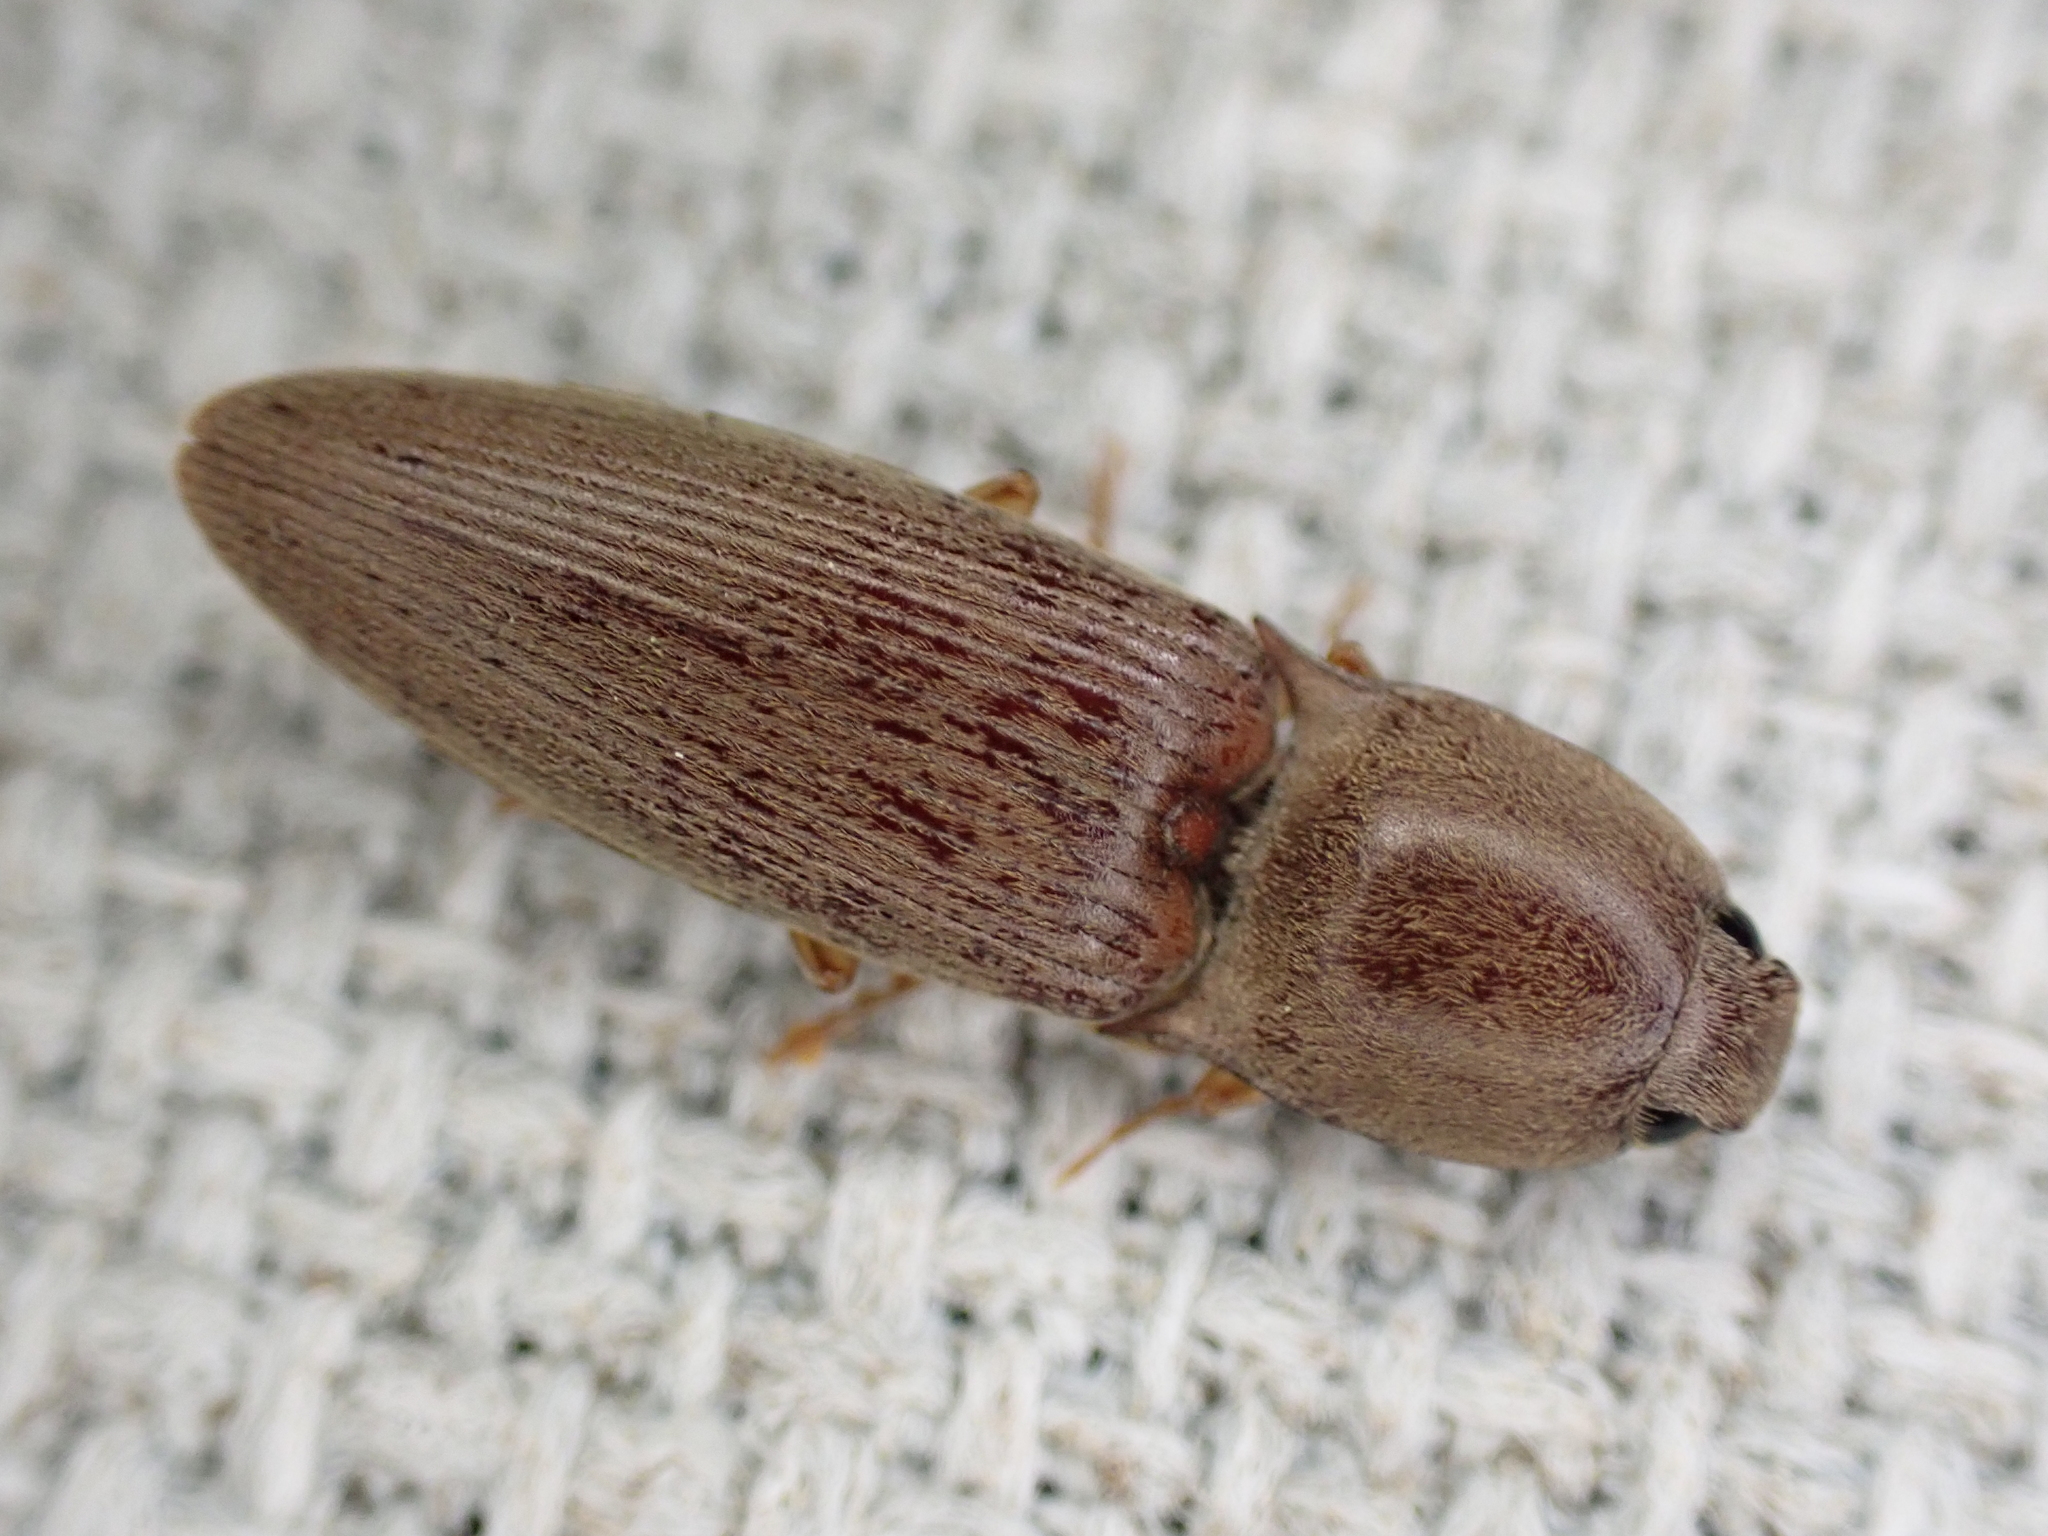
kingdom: Animalia
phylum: Arthropoda
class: Insecta
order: Coleoptera
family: Elateridae
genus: Monocrepidius
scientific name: Monocrepidius lividus
